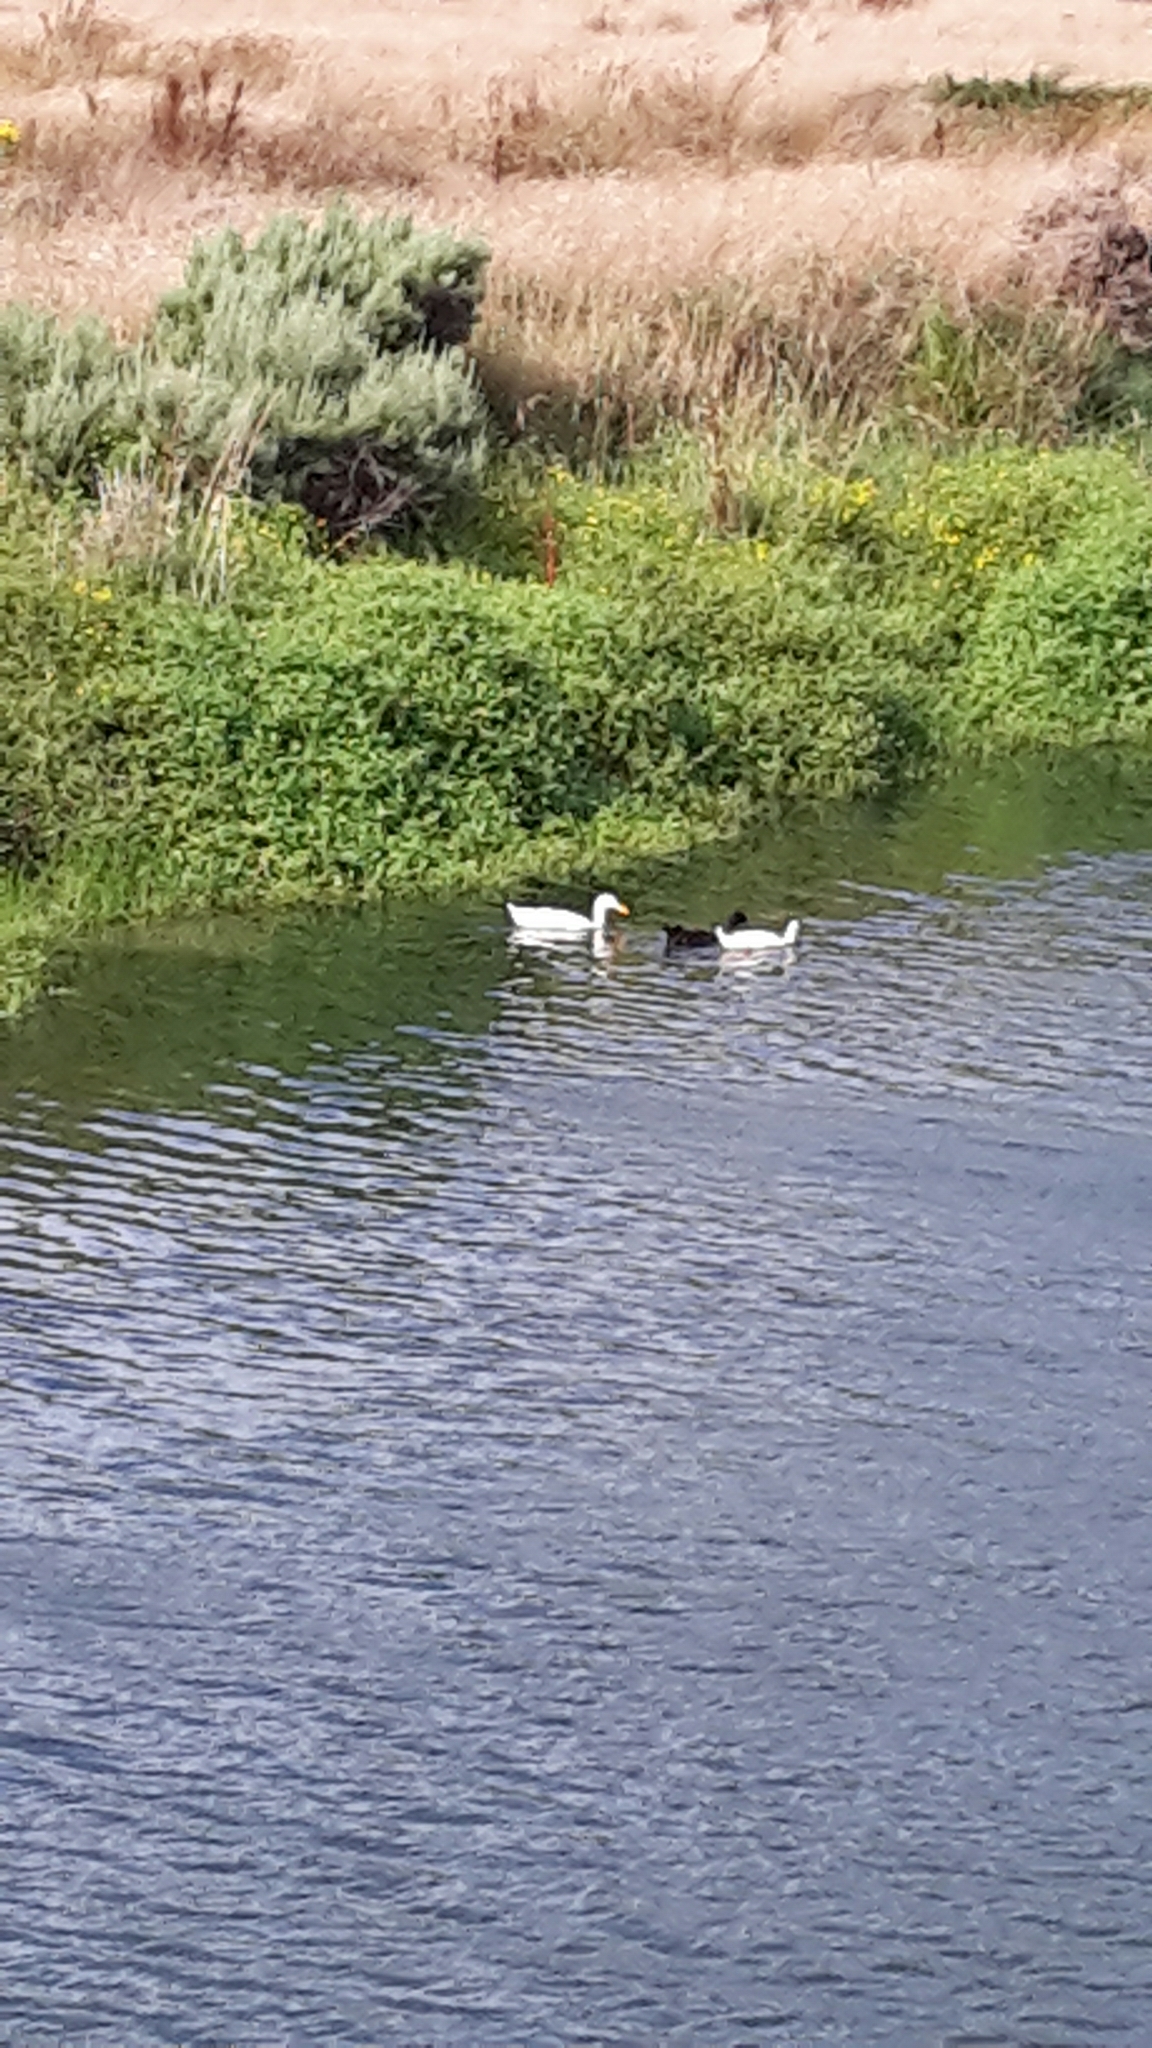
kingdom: Animalia
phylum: Chordata
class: Aves
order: Anseriformes
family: Anatidae
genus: Anas
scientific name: Anas platyrhynchos
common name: Mallard
